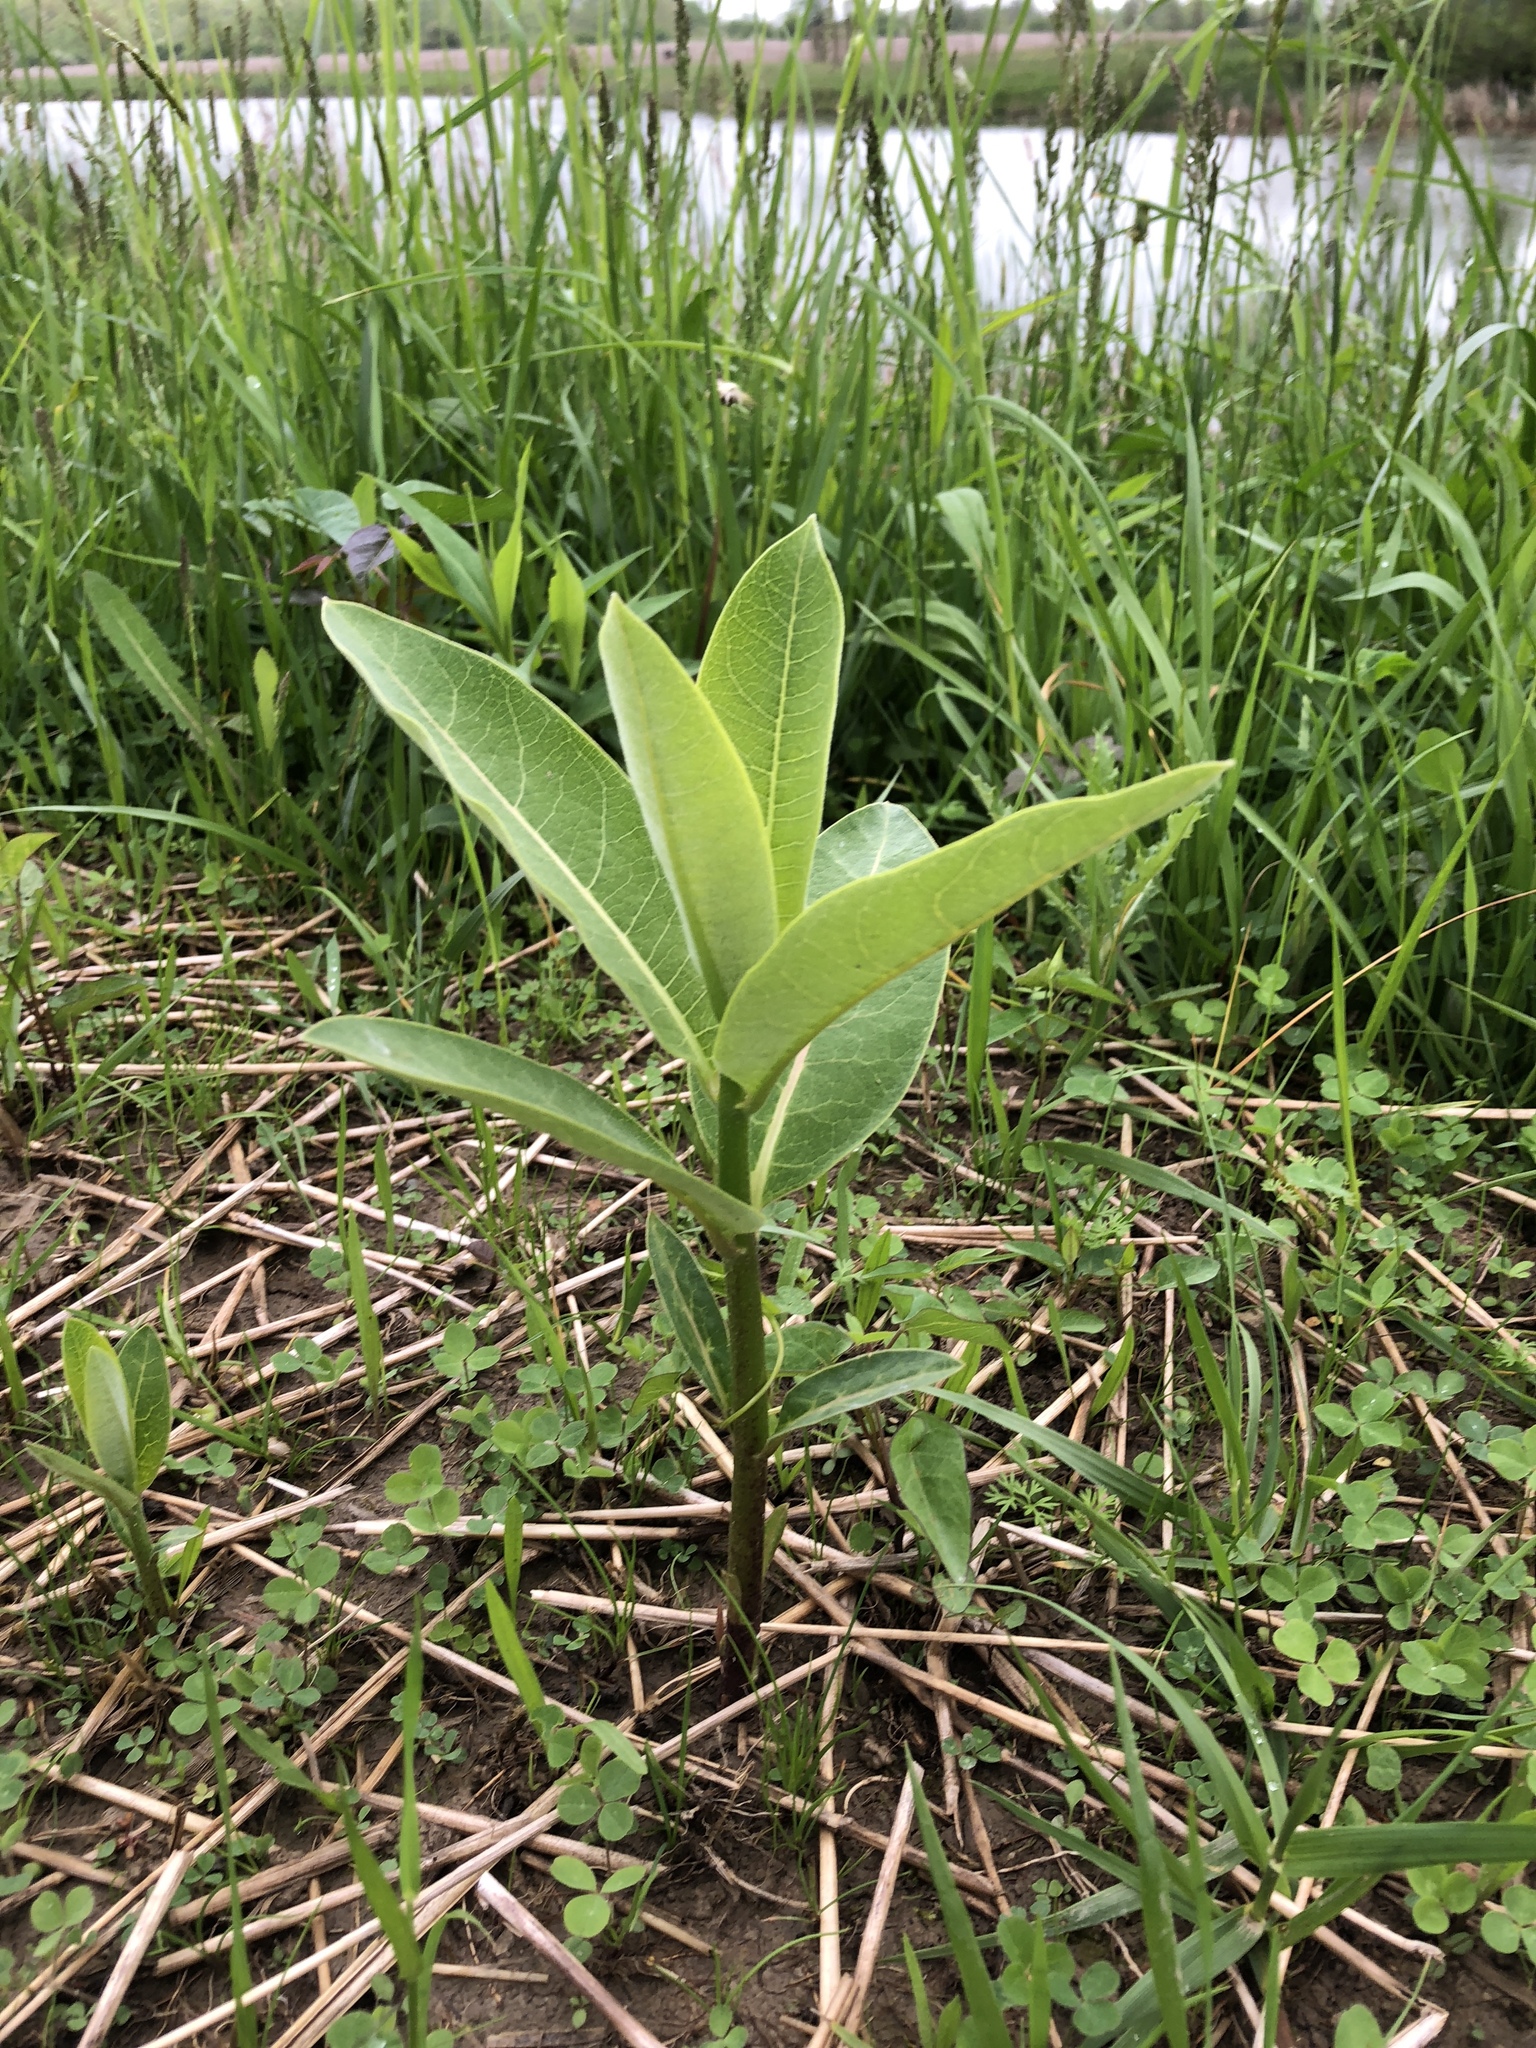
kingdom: Plantae
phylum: Tracheophyta
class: Magnoliopsida
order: Gentianales
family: Apocynaceae
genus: Asclepias
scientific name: Asclepias syriaca
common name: Common milkweed
